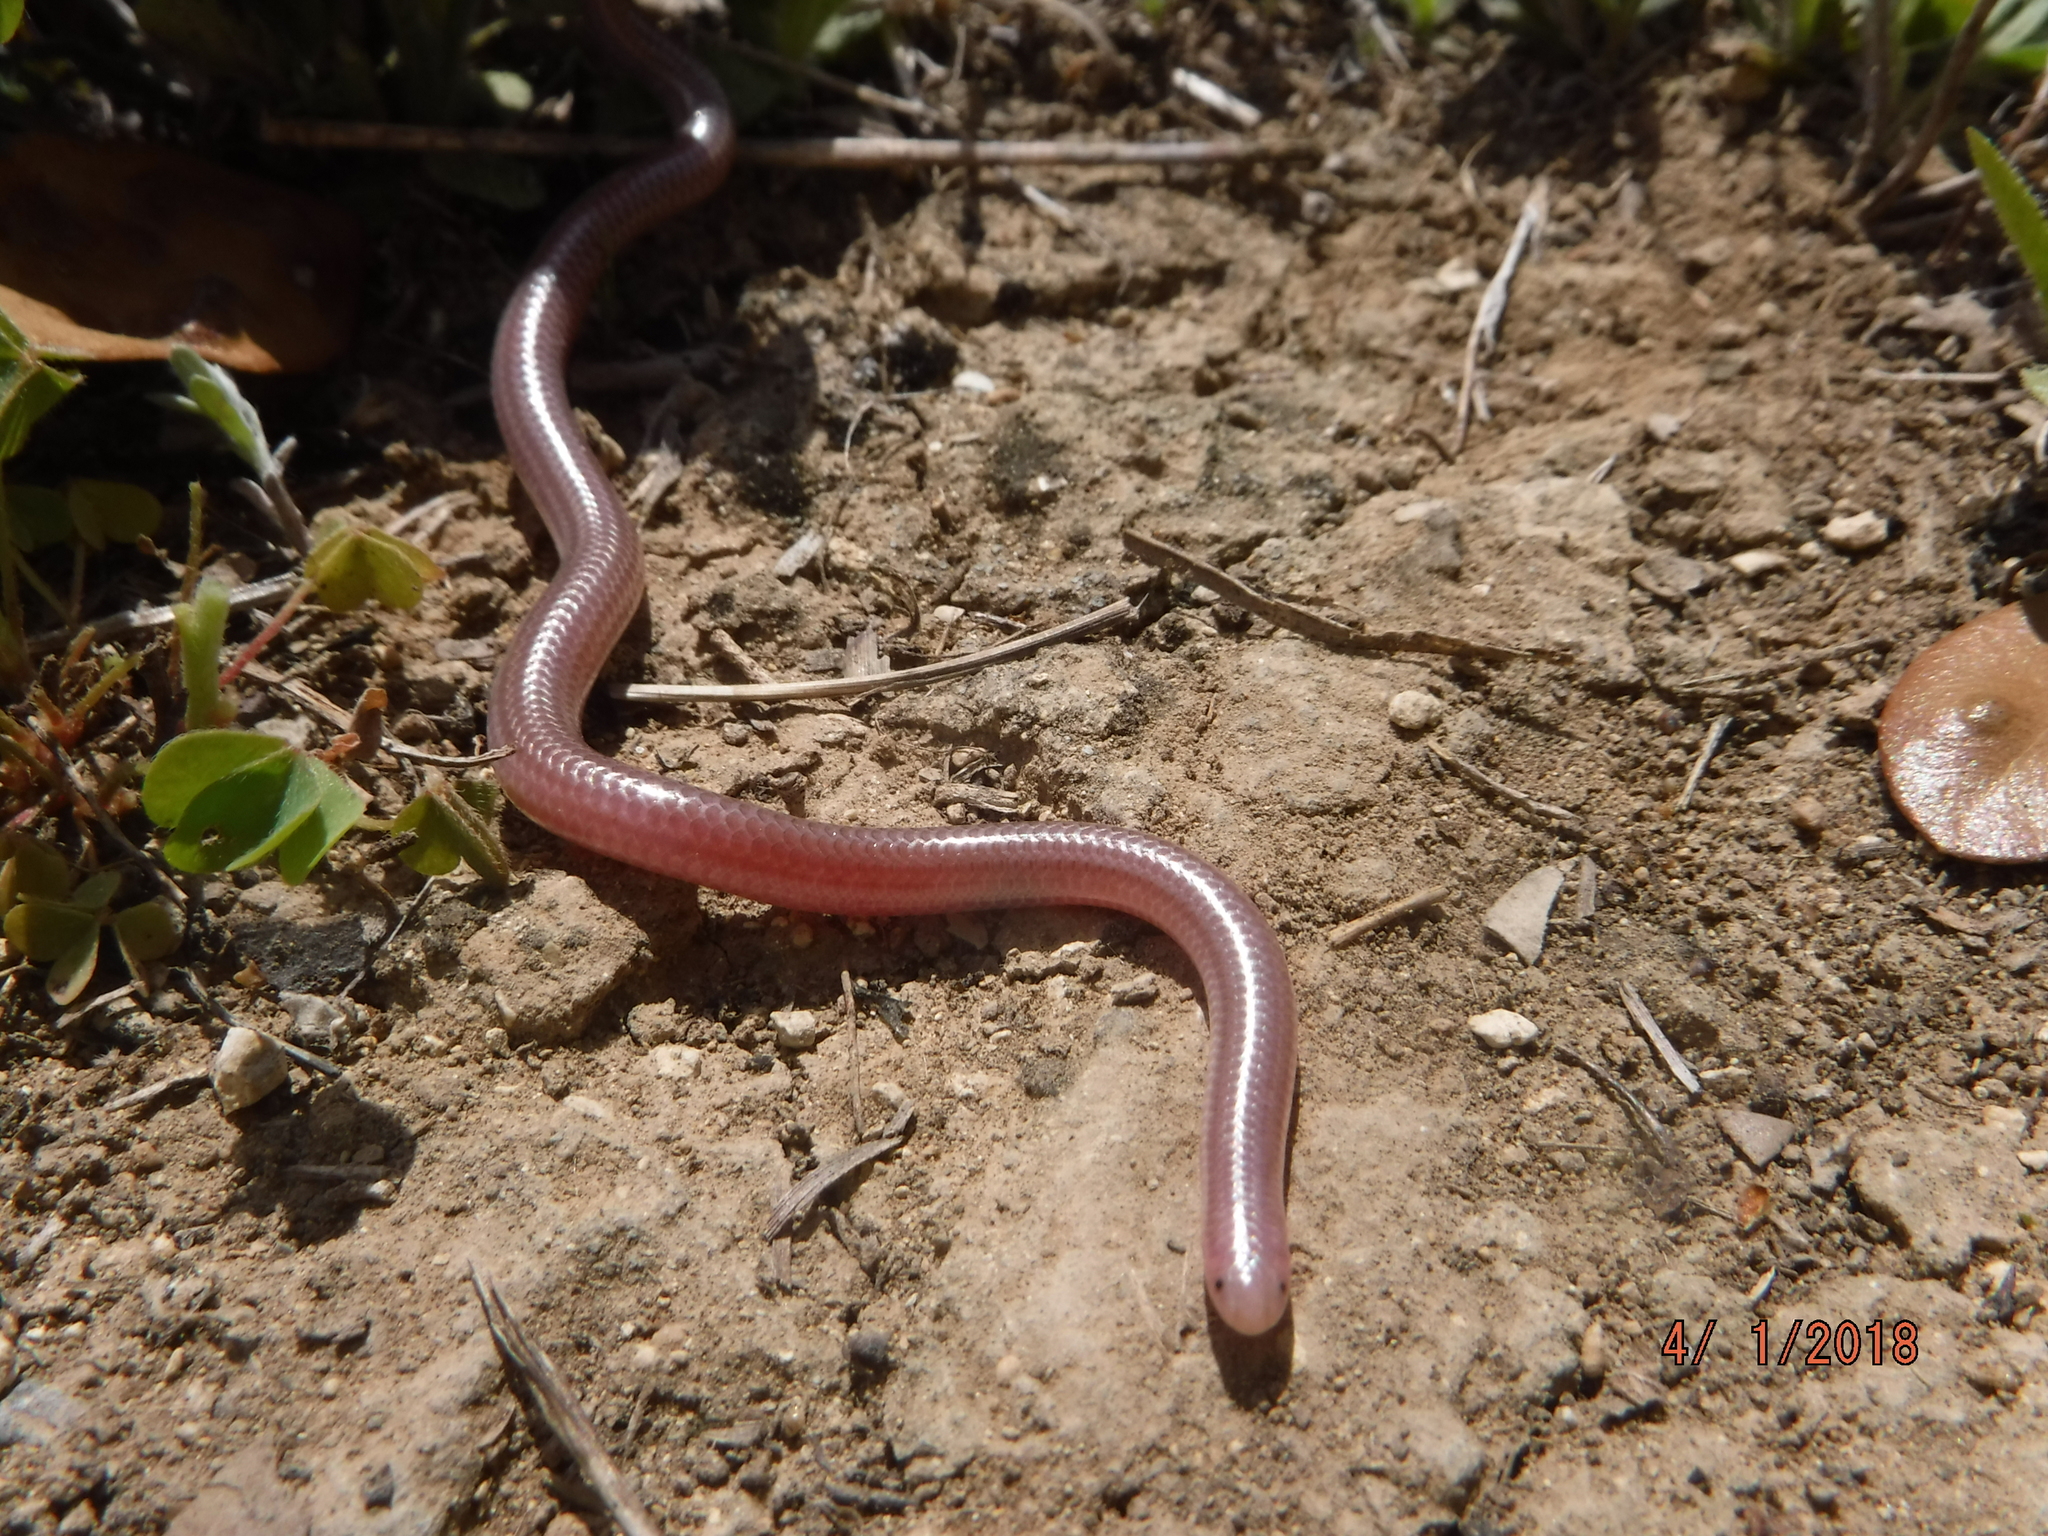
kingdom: Animalia
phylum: Chordata
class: Squamata
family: Leptotyphlopidae
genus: Rena
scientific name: Rena dulcis
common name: Texas blind snake
